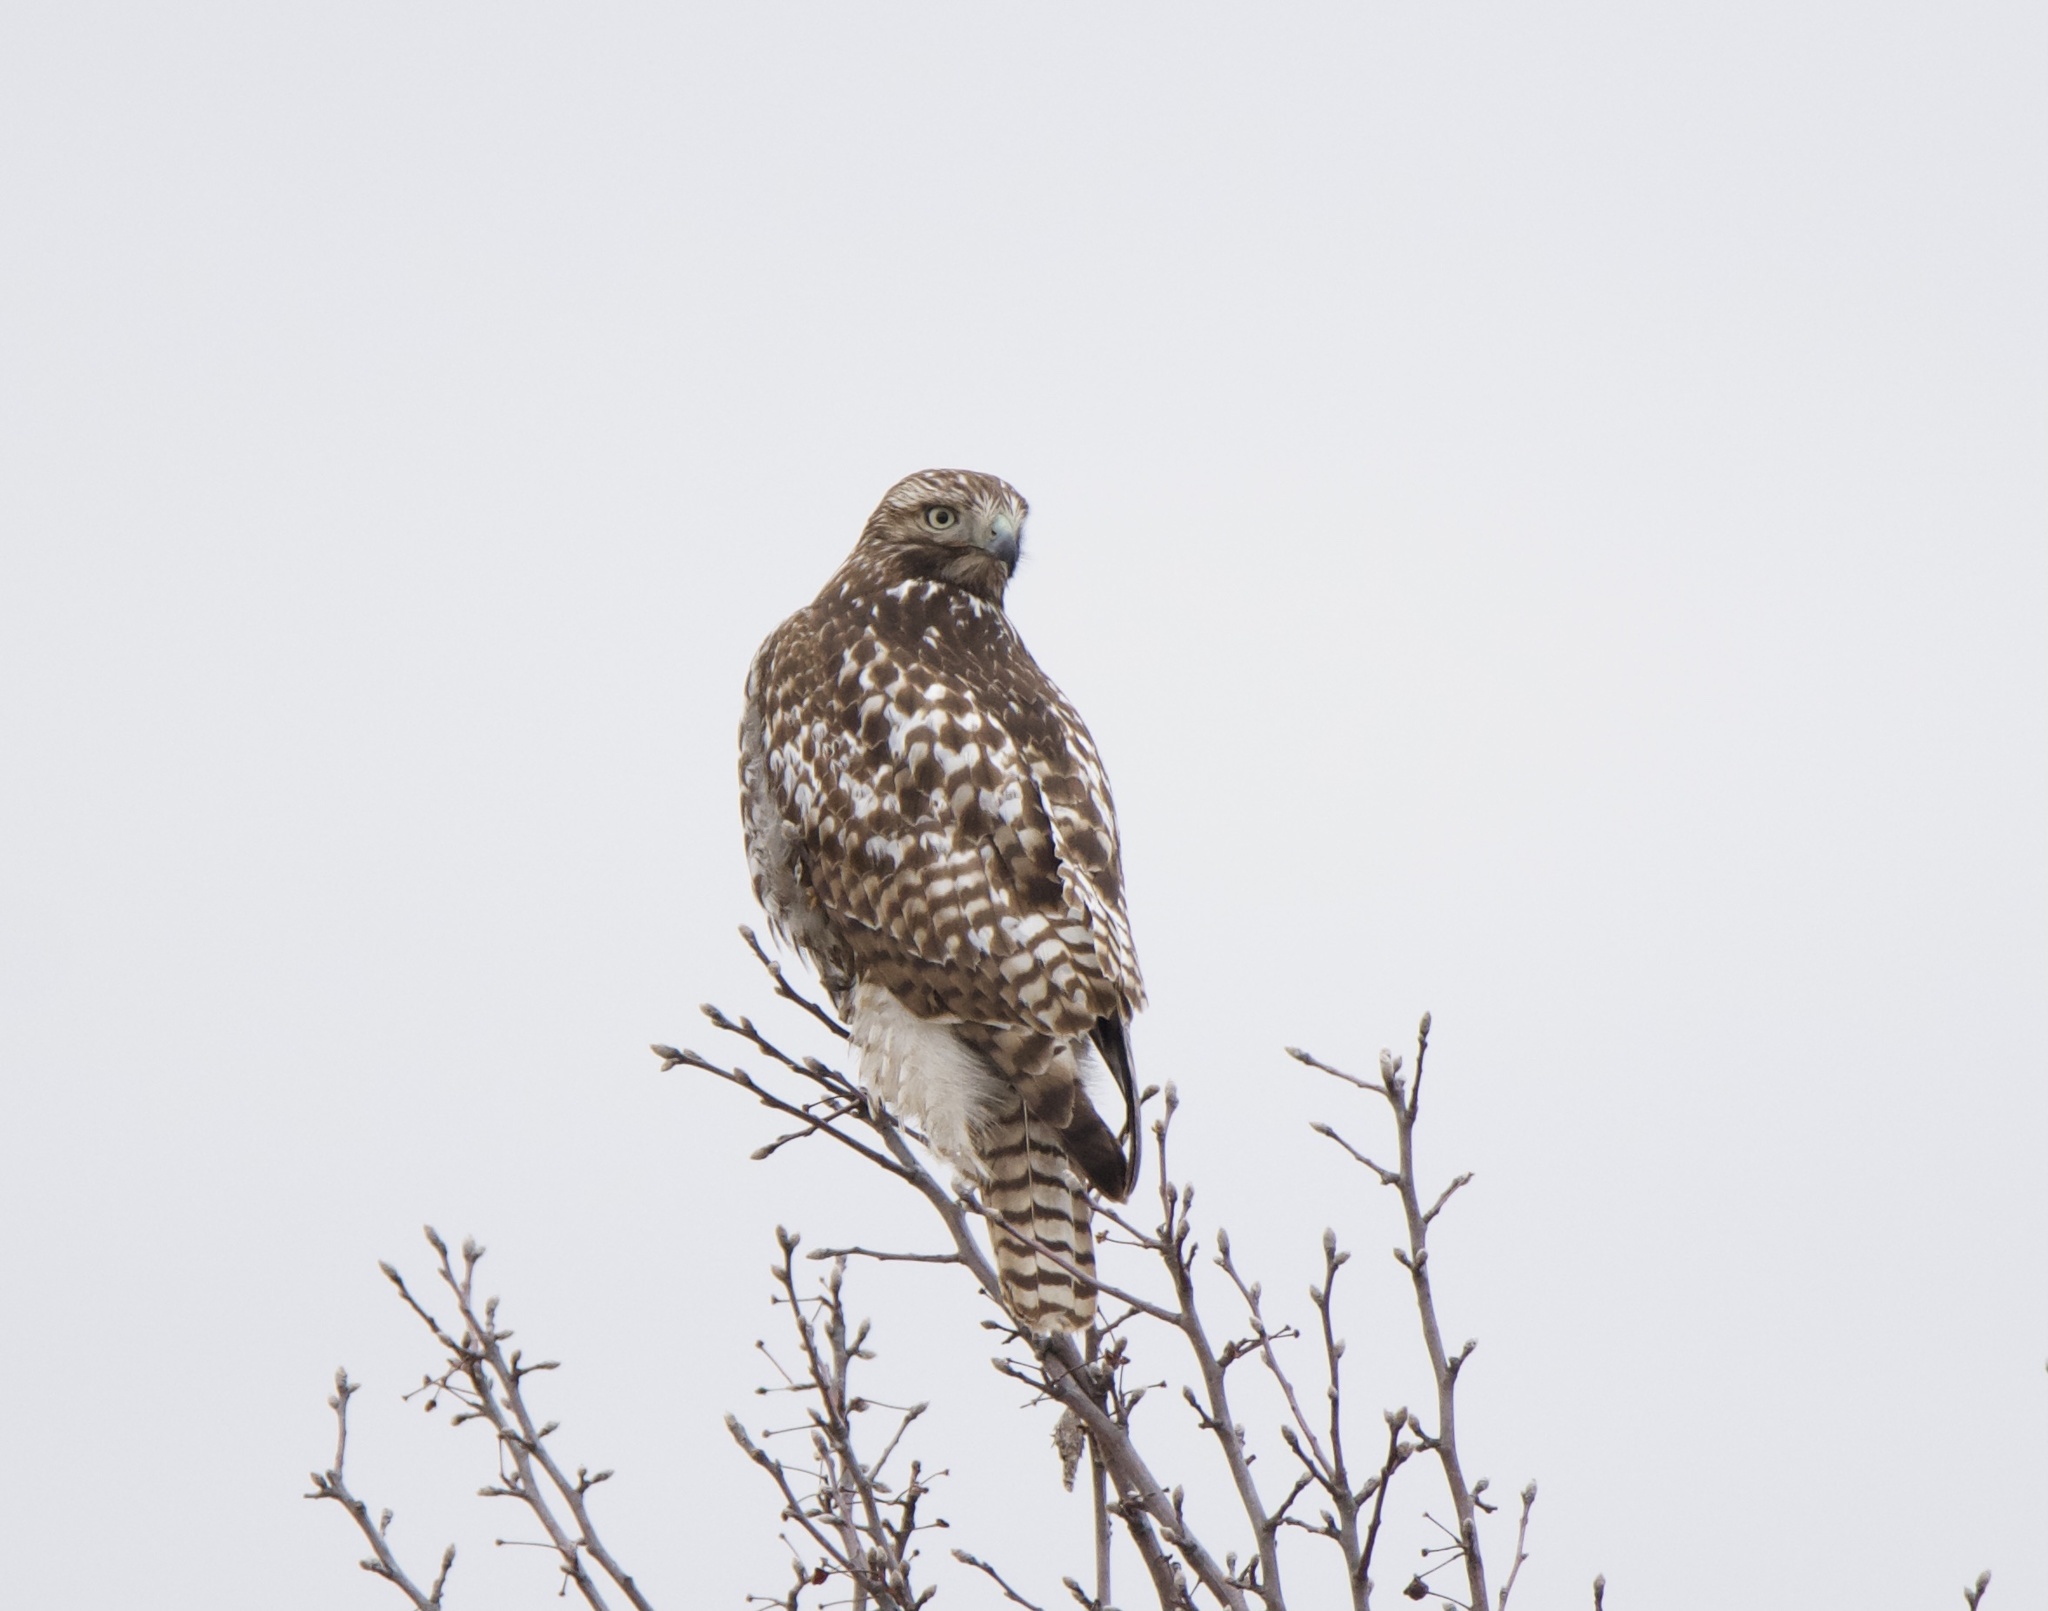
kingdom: Animalia
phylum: Chordata
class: Aves
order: Accipitriformes
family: Accipitridae
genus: Buteo
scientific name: Buteo jamaicensis
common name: Red-tailed hawk
